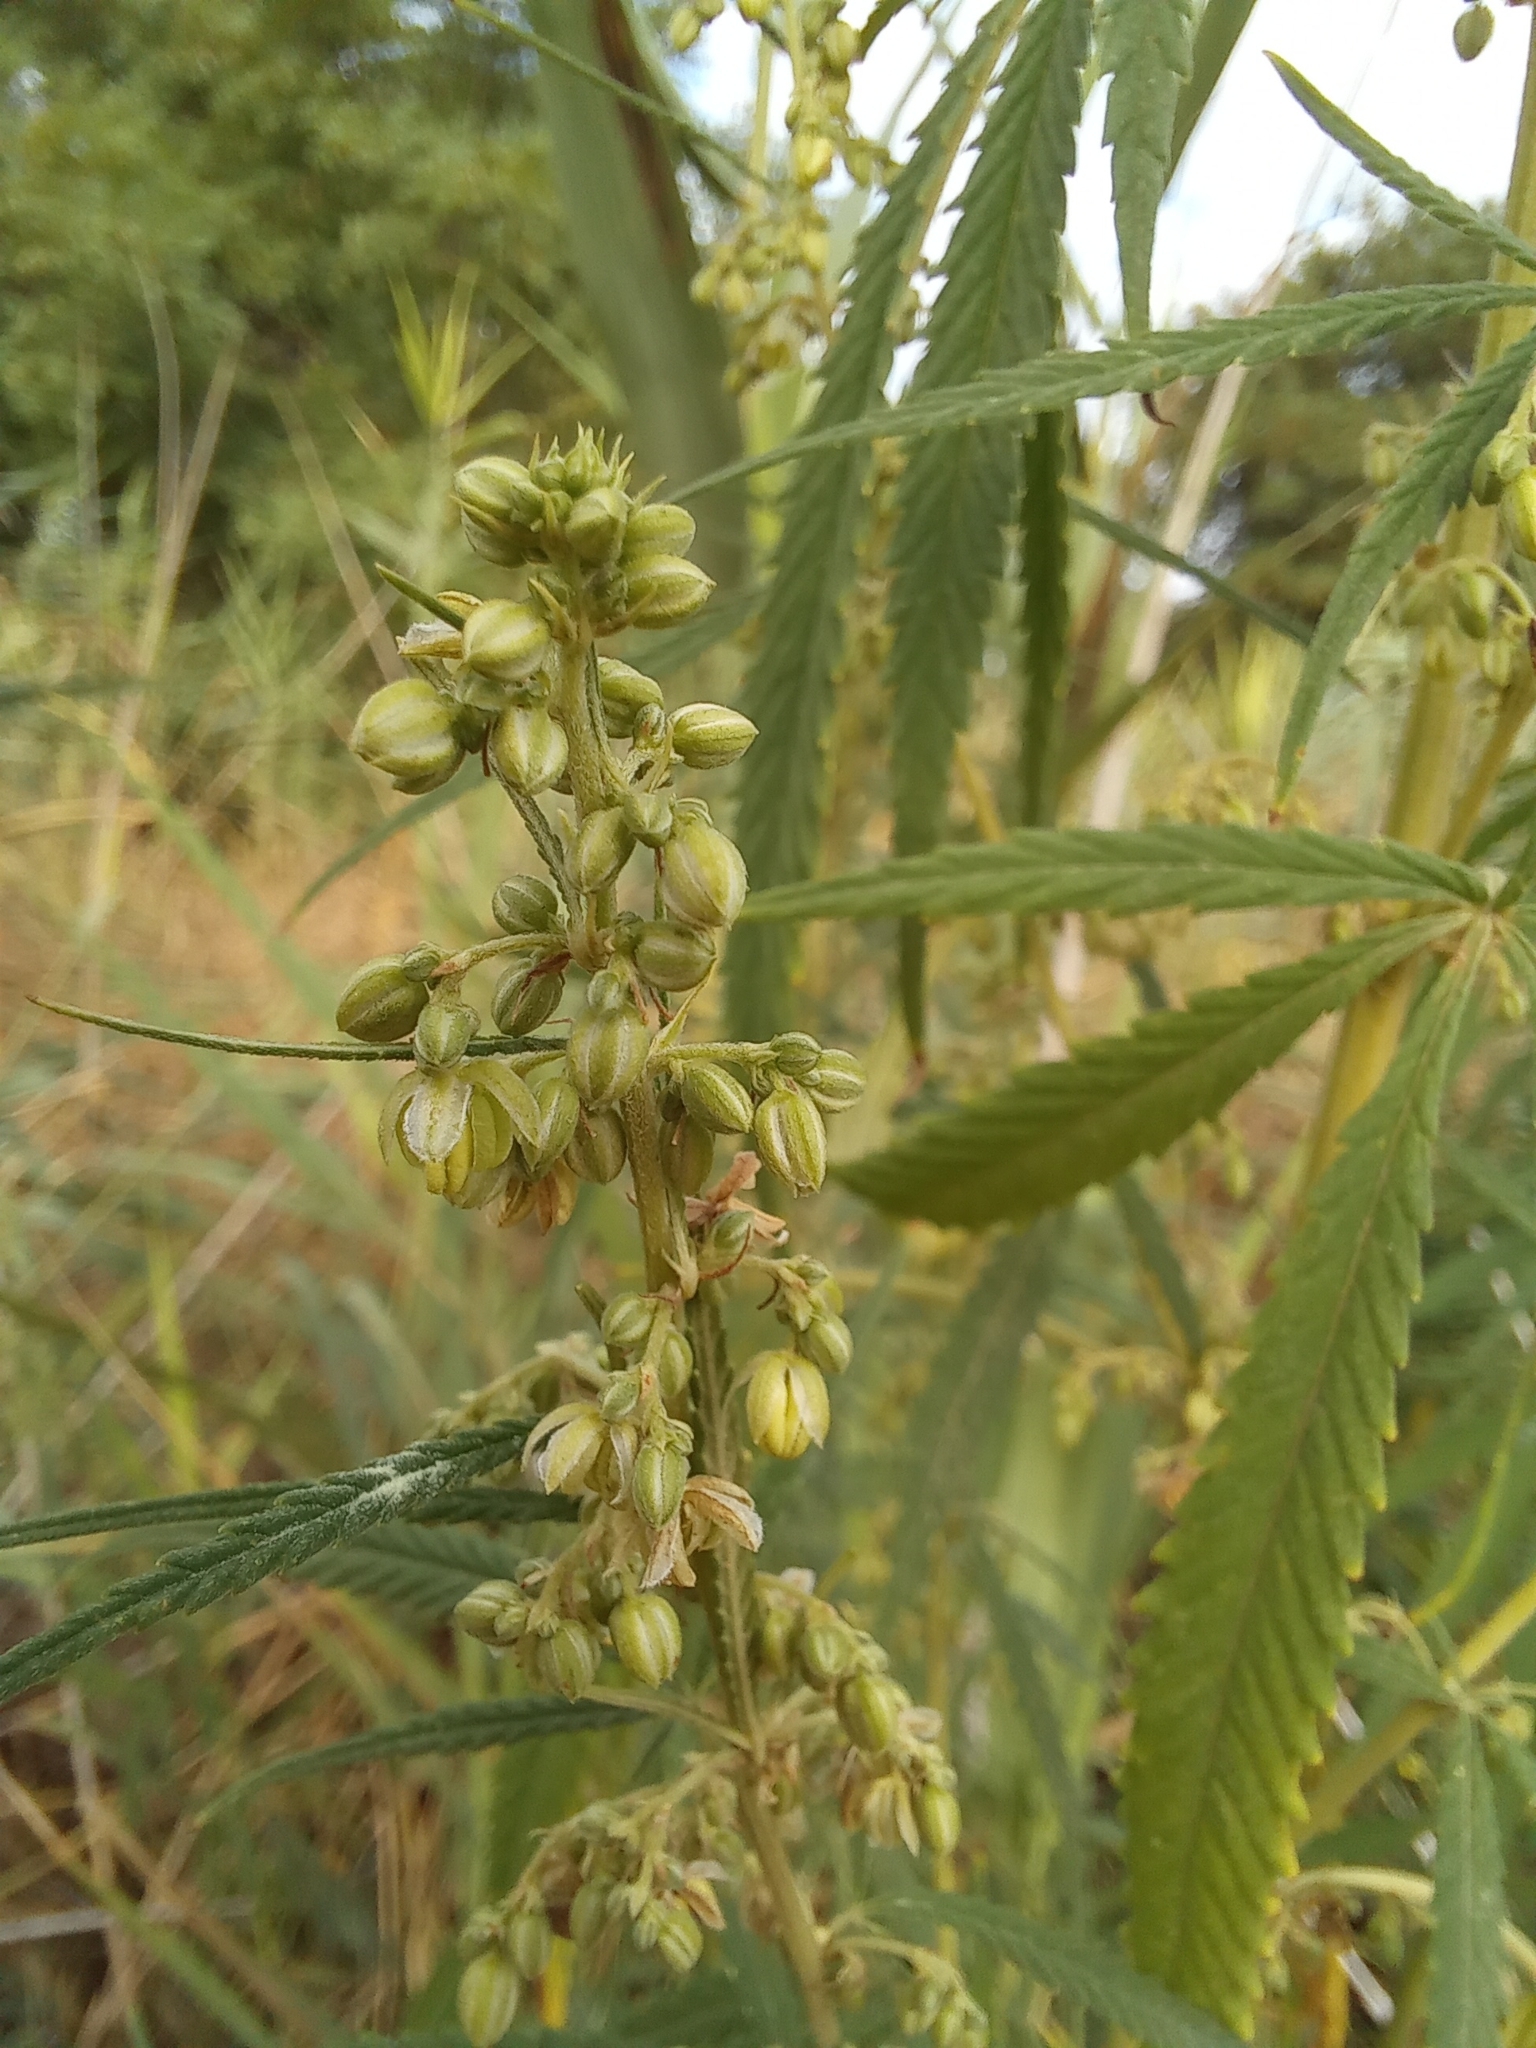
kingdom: Plantae
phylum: Tracheophyta
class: Magnoliopsida
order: Rosales
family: Cannabaceae
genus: Cannabis
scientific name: Cannabis sativa
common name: Hemp
